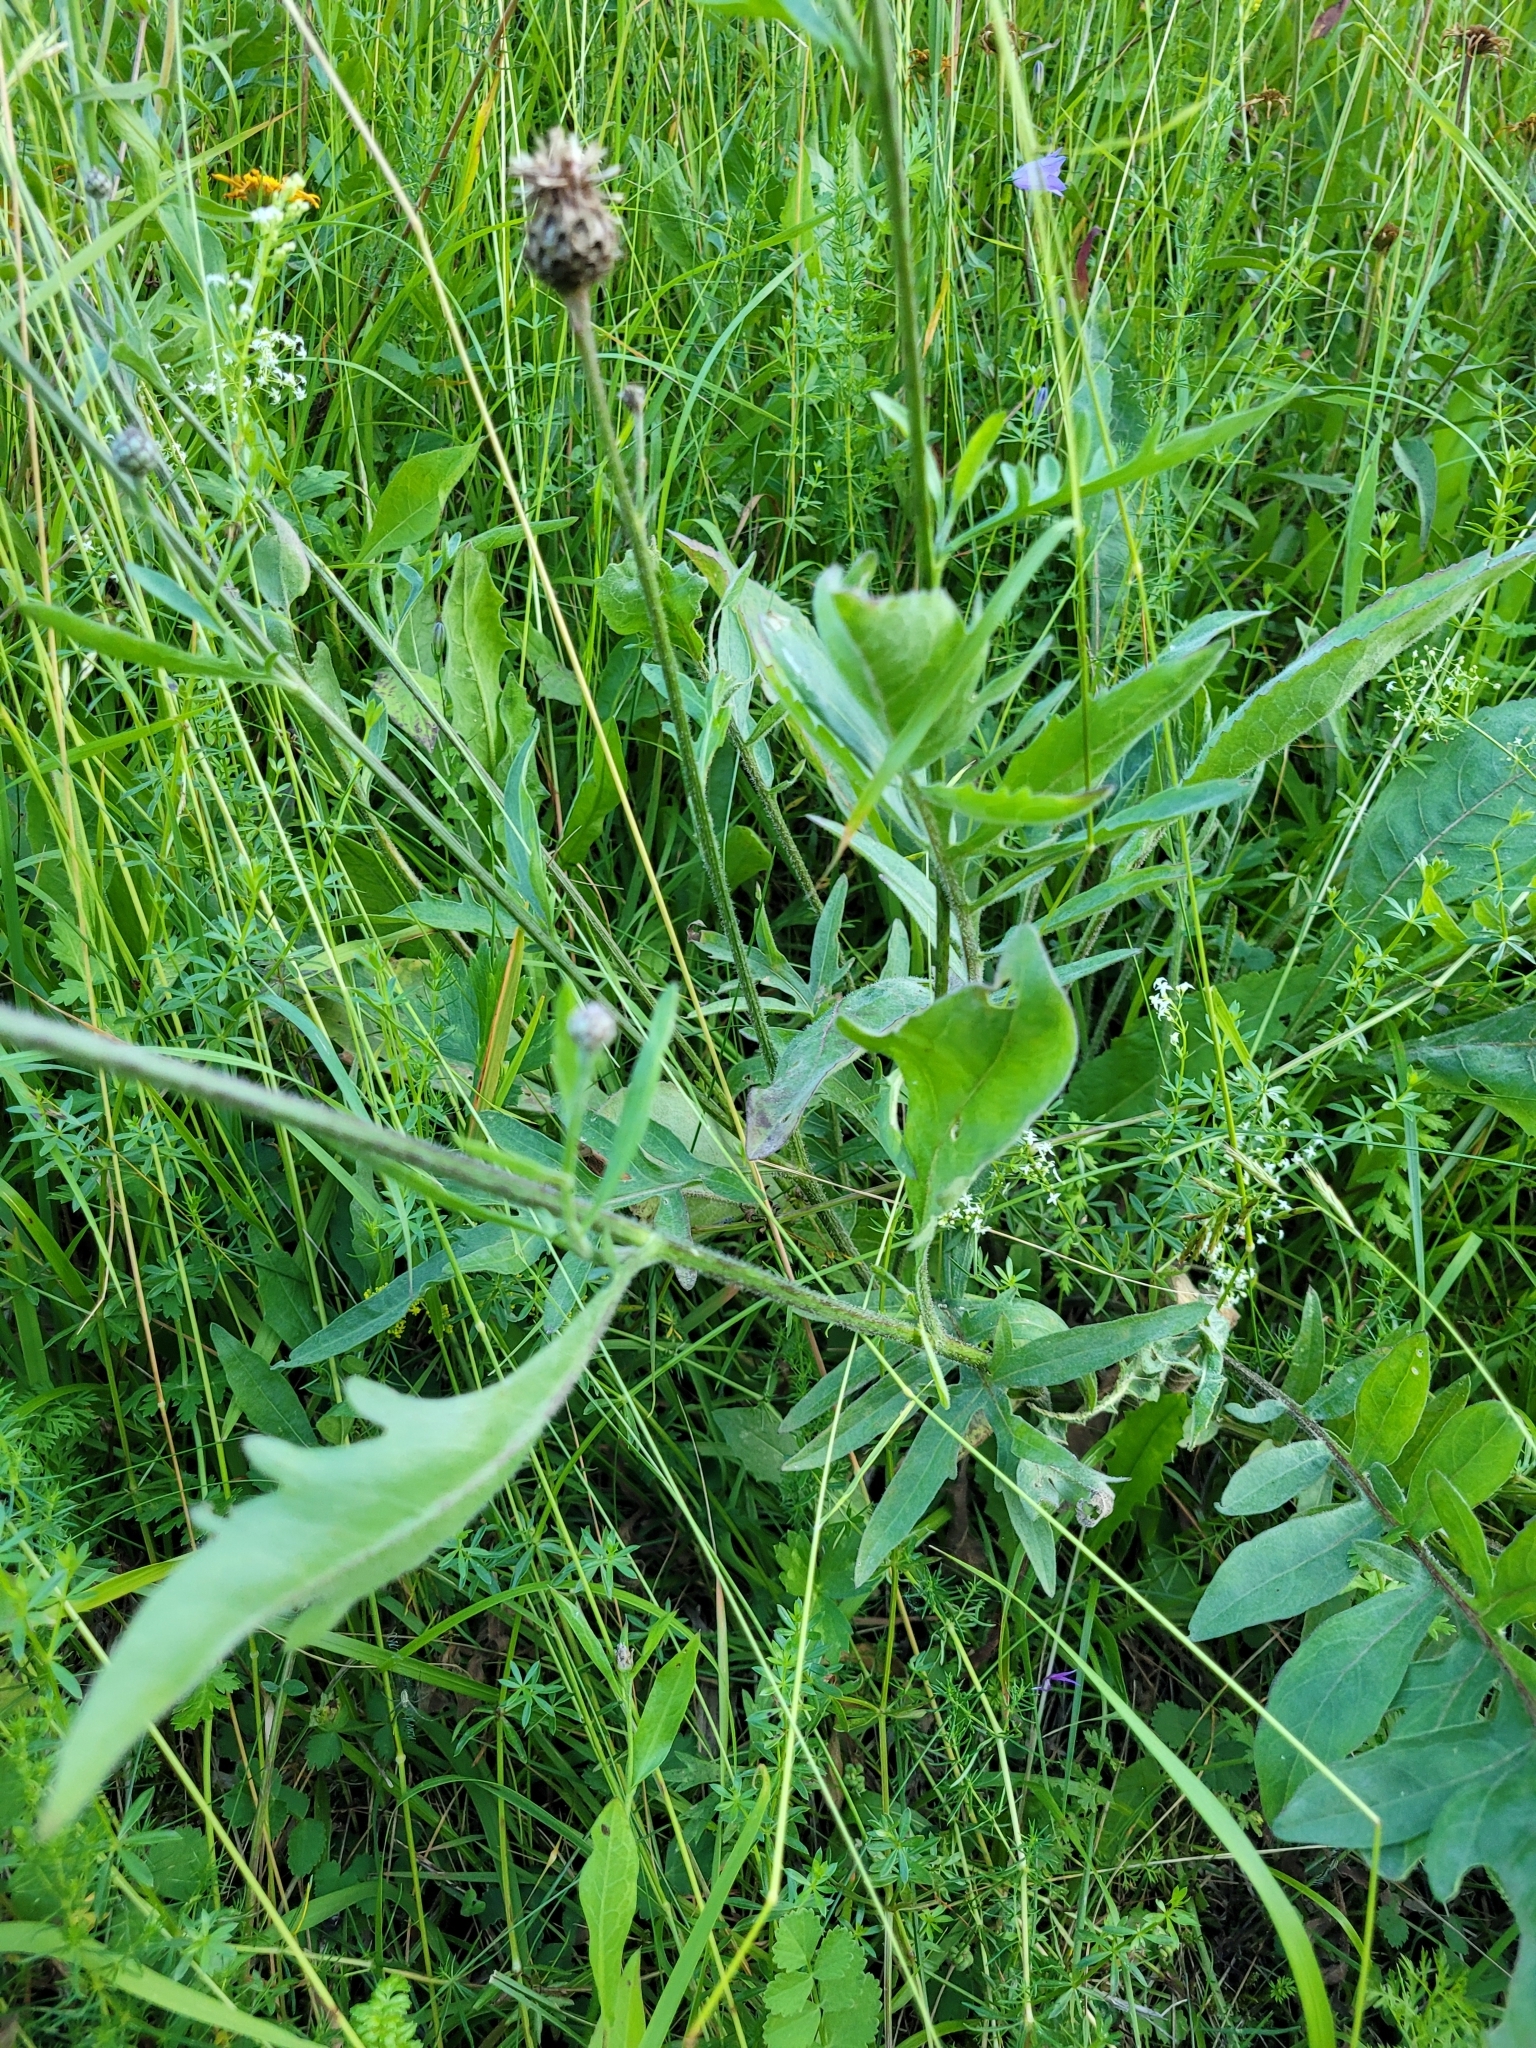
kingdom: Plantae
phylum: Tracheophyta
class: Magnoliopsida
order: Asterales
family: Asteraceae
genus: Centaurea
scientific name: Centaurea scabiosa
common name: Greater knapweed
